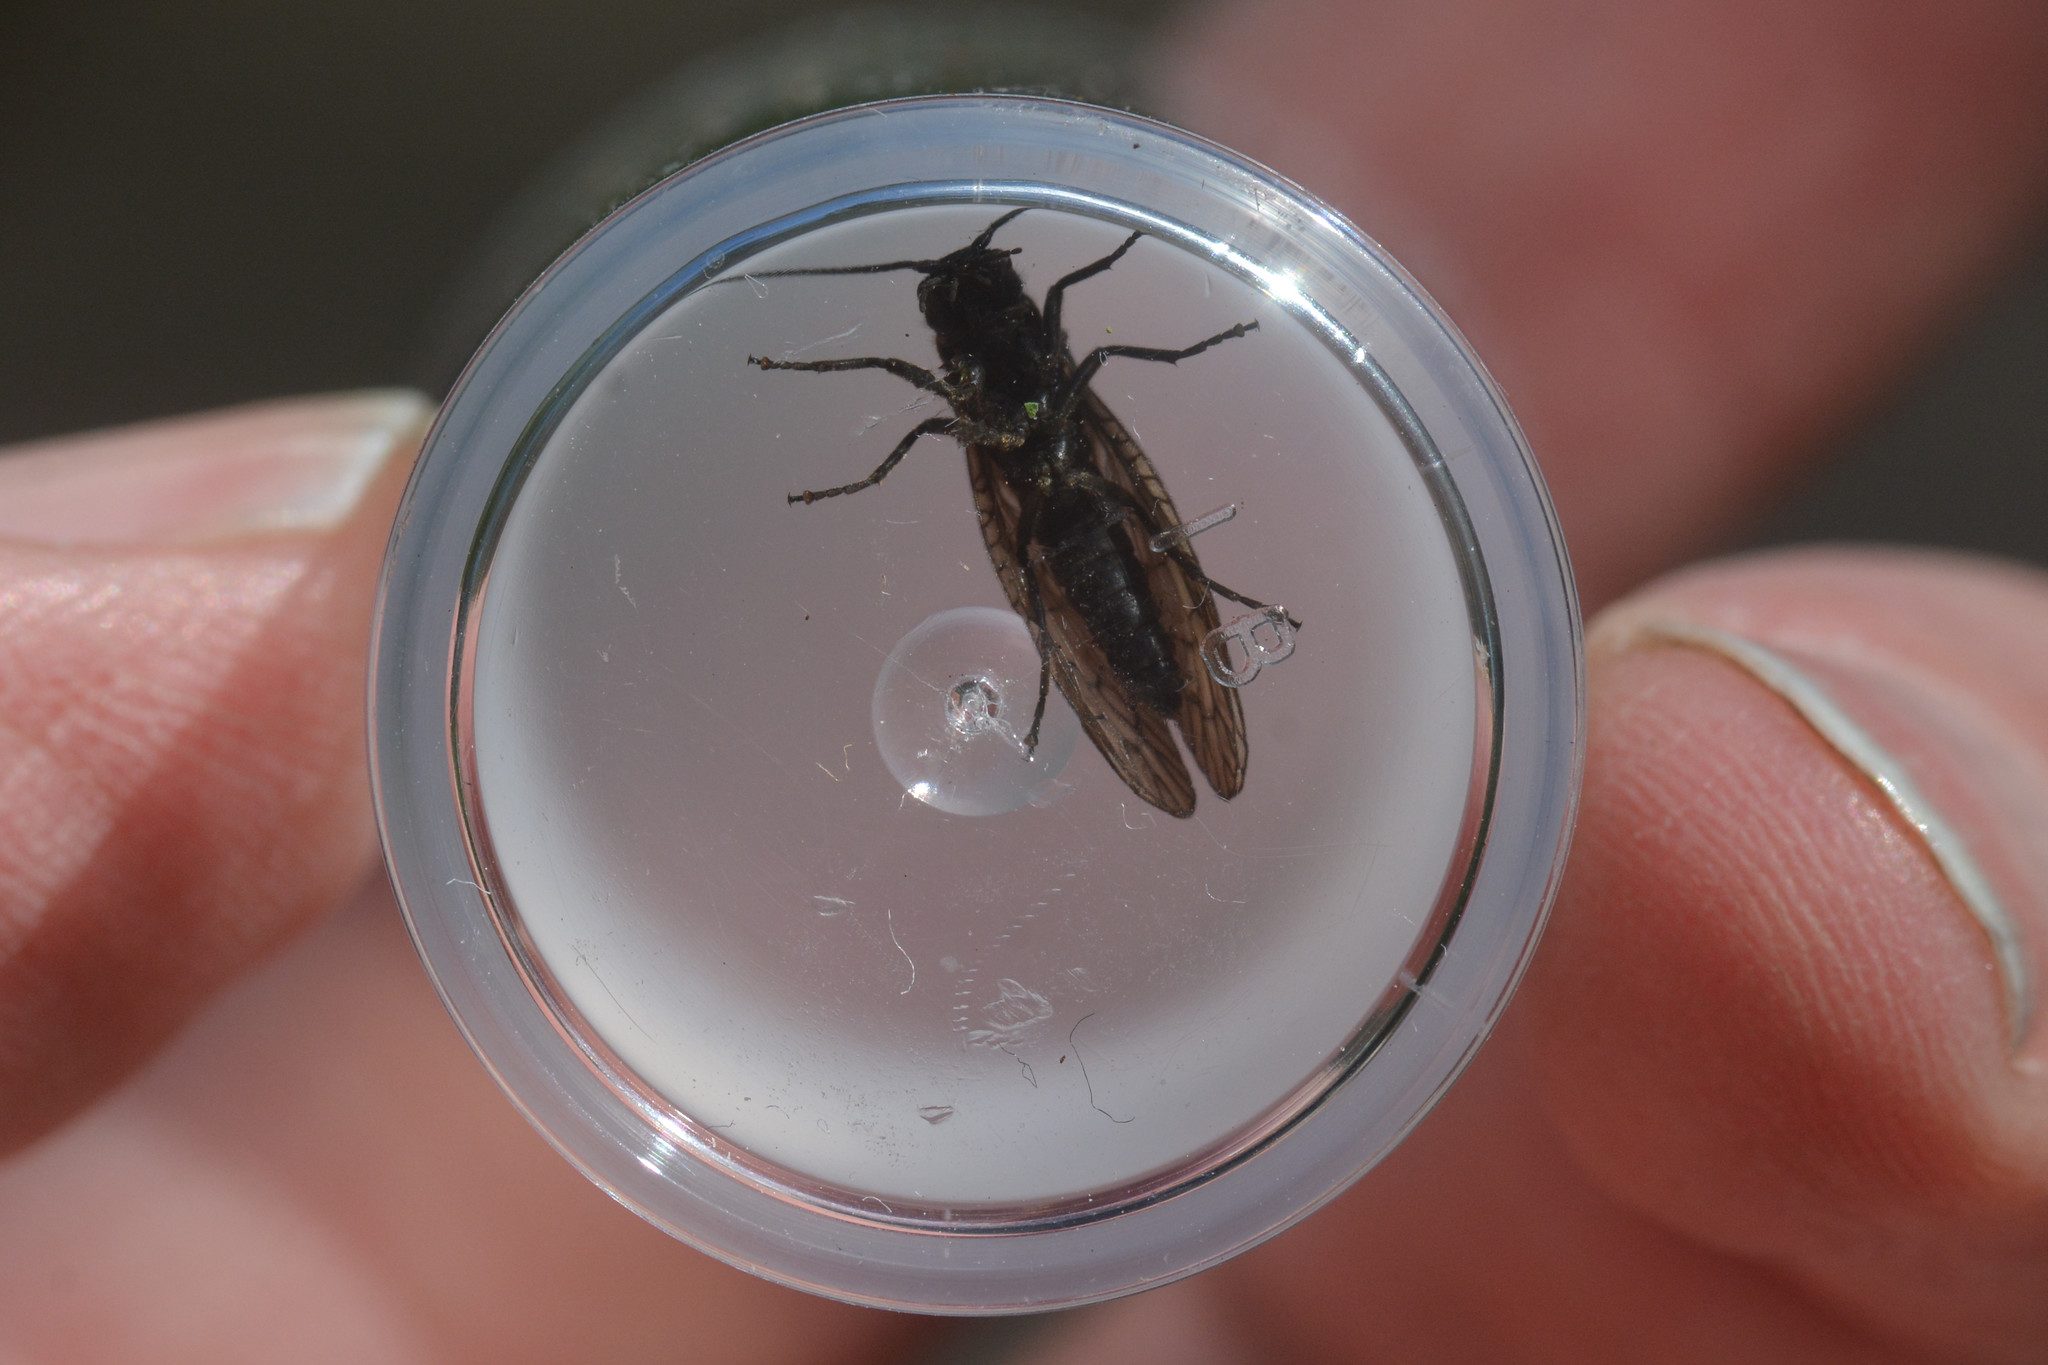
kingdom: Animalia
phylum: Arthropoda
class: Insecta
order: Megaloptera
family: Sialidae
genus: Sialis
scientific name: Sialis
